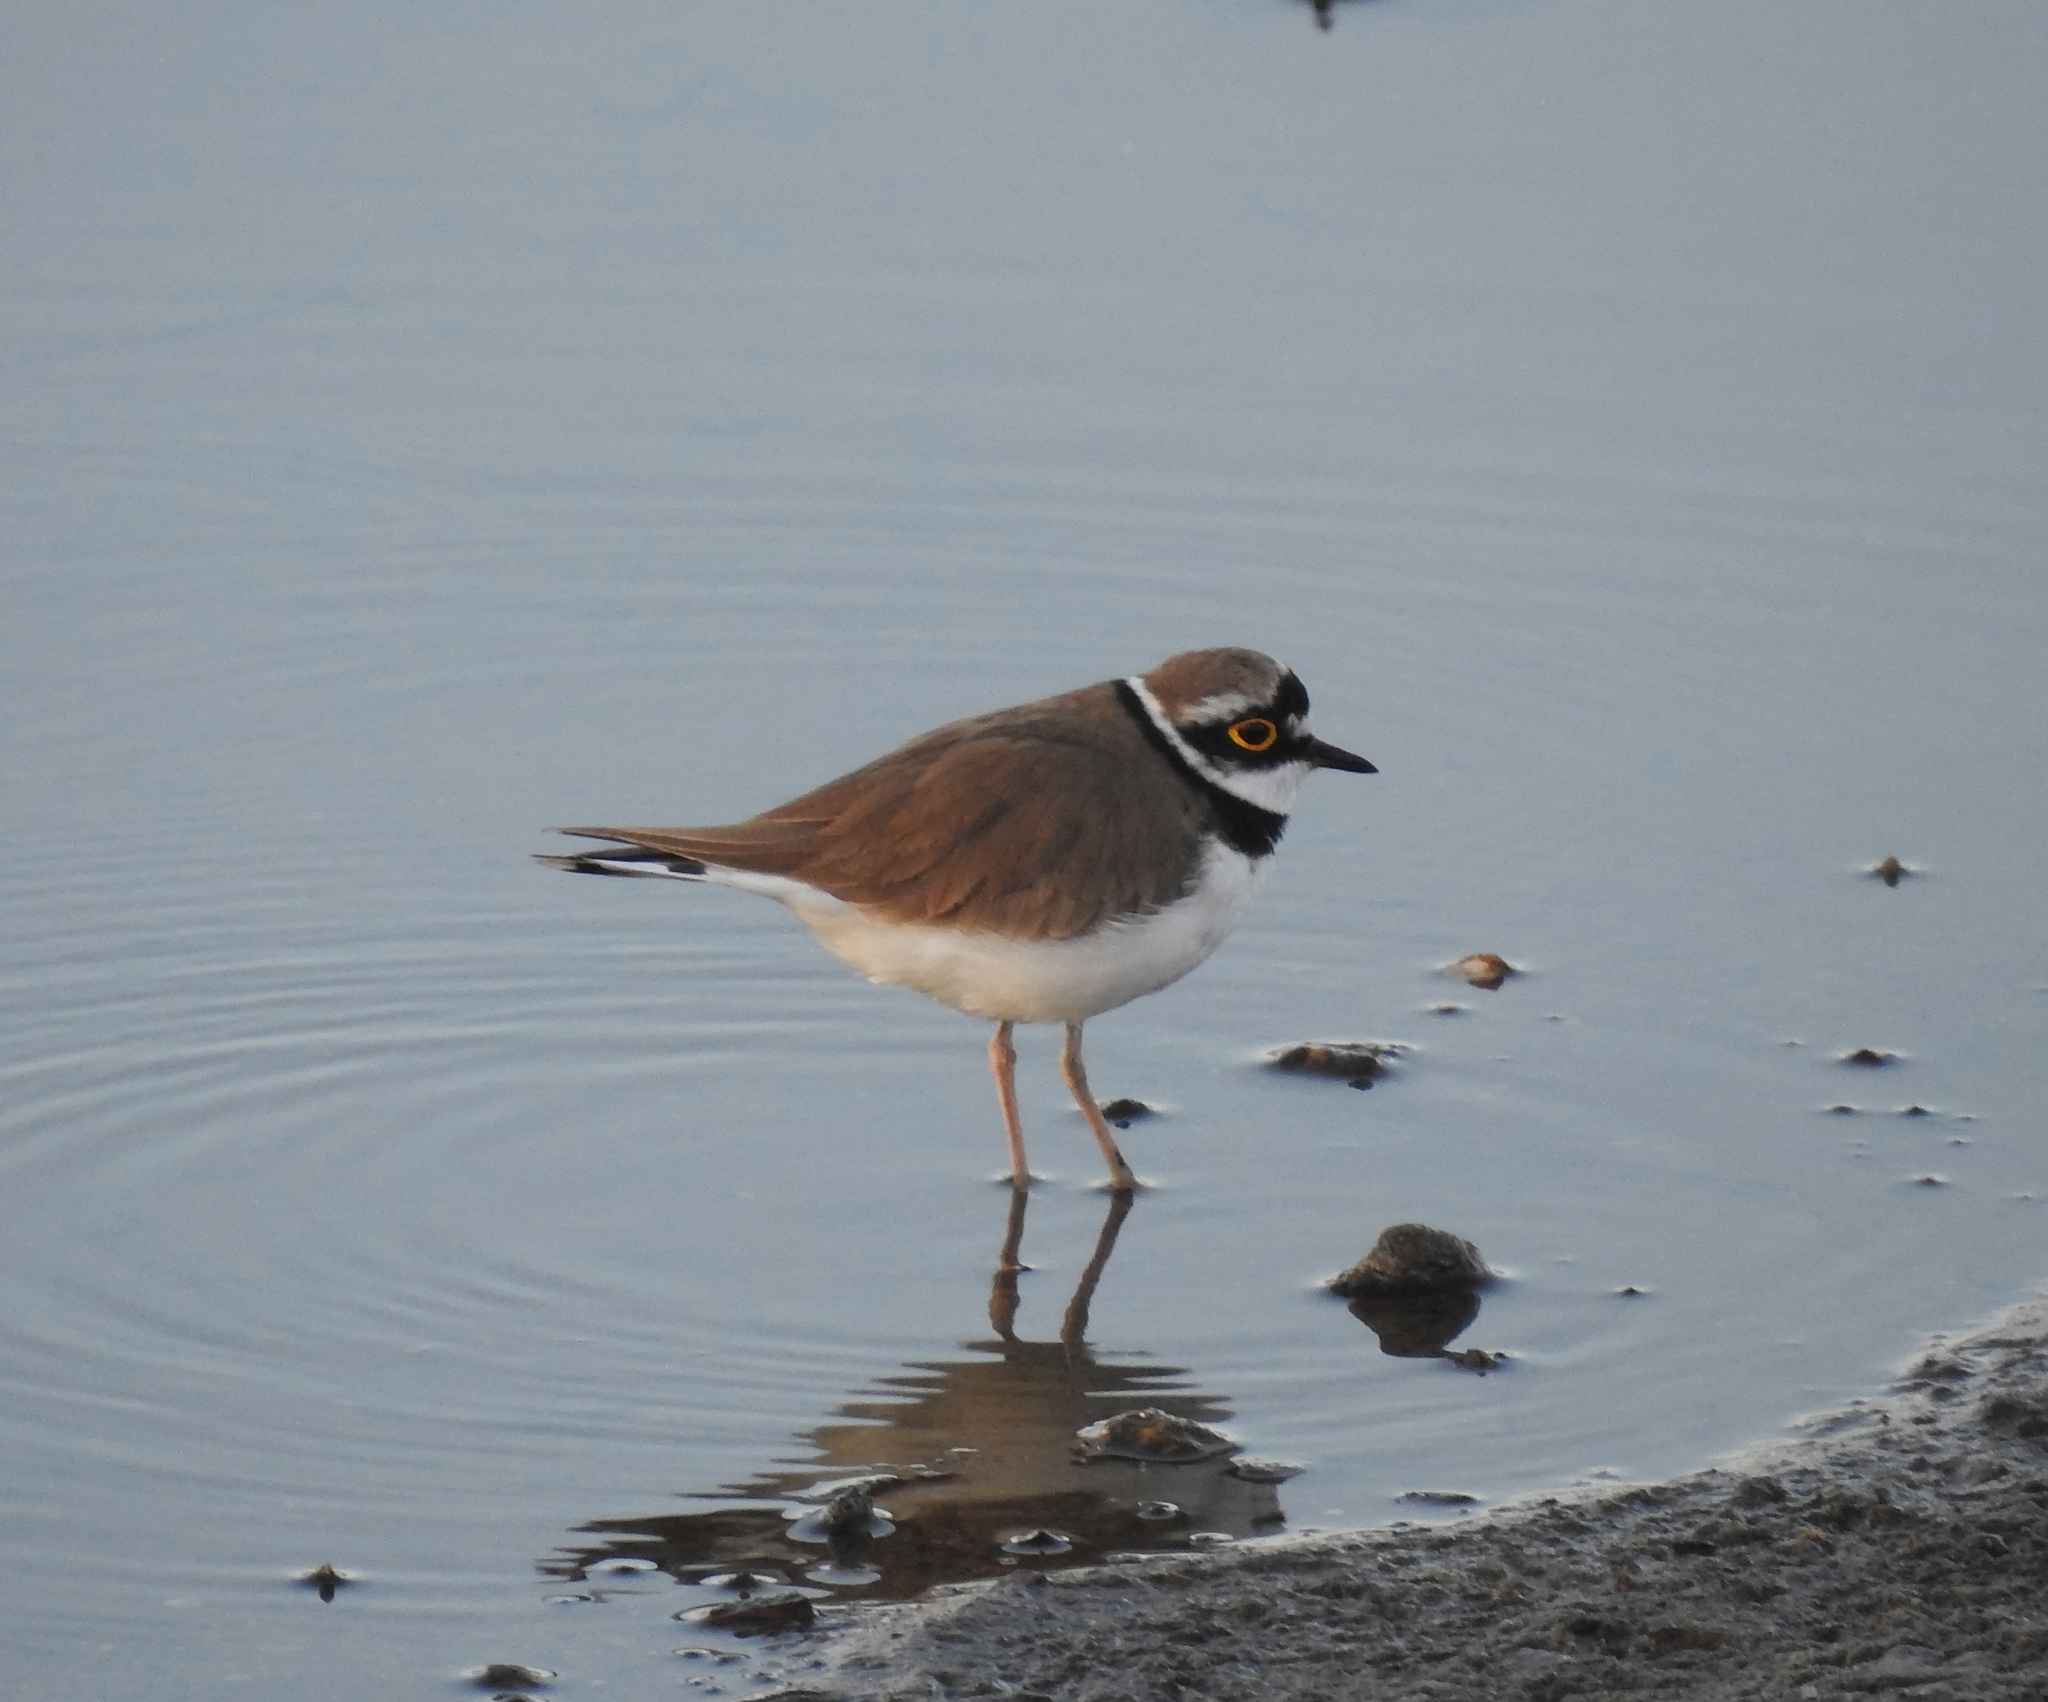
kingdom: Animalia
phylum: Chordata
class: Aves
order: Charadriiformes
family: Charadriidae
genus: Charadrius
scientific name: Charadrius dubius
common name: Little ringed plover
